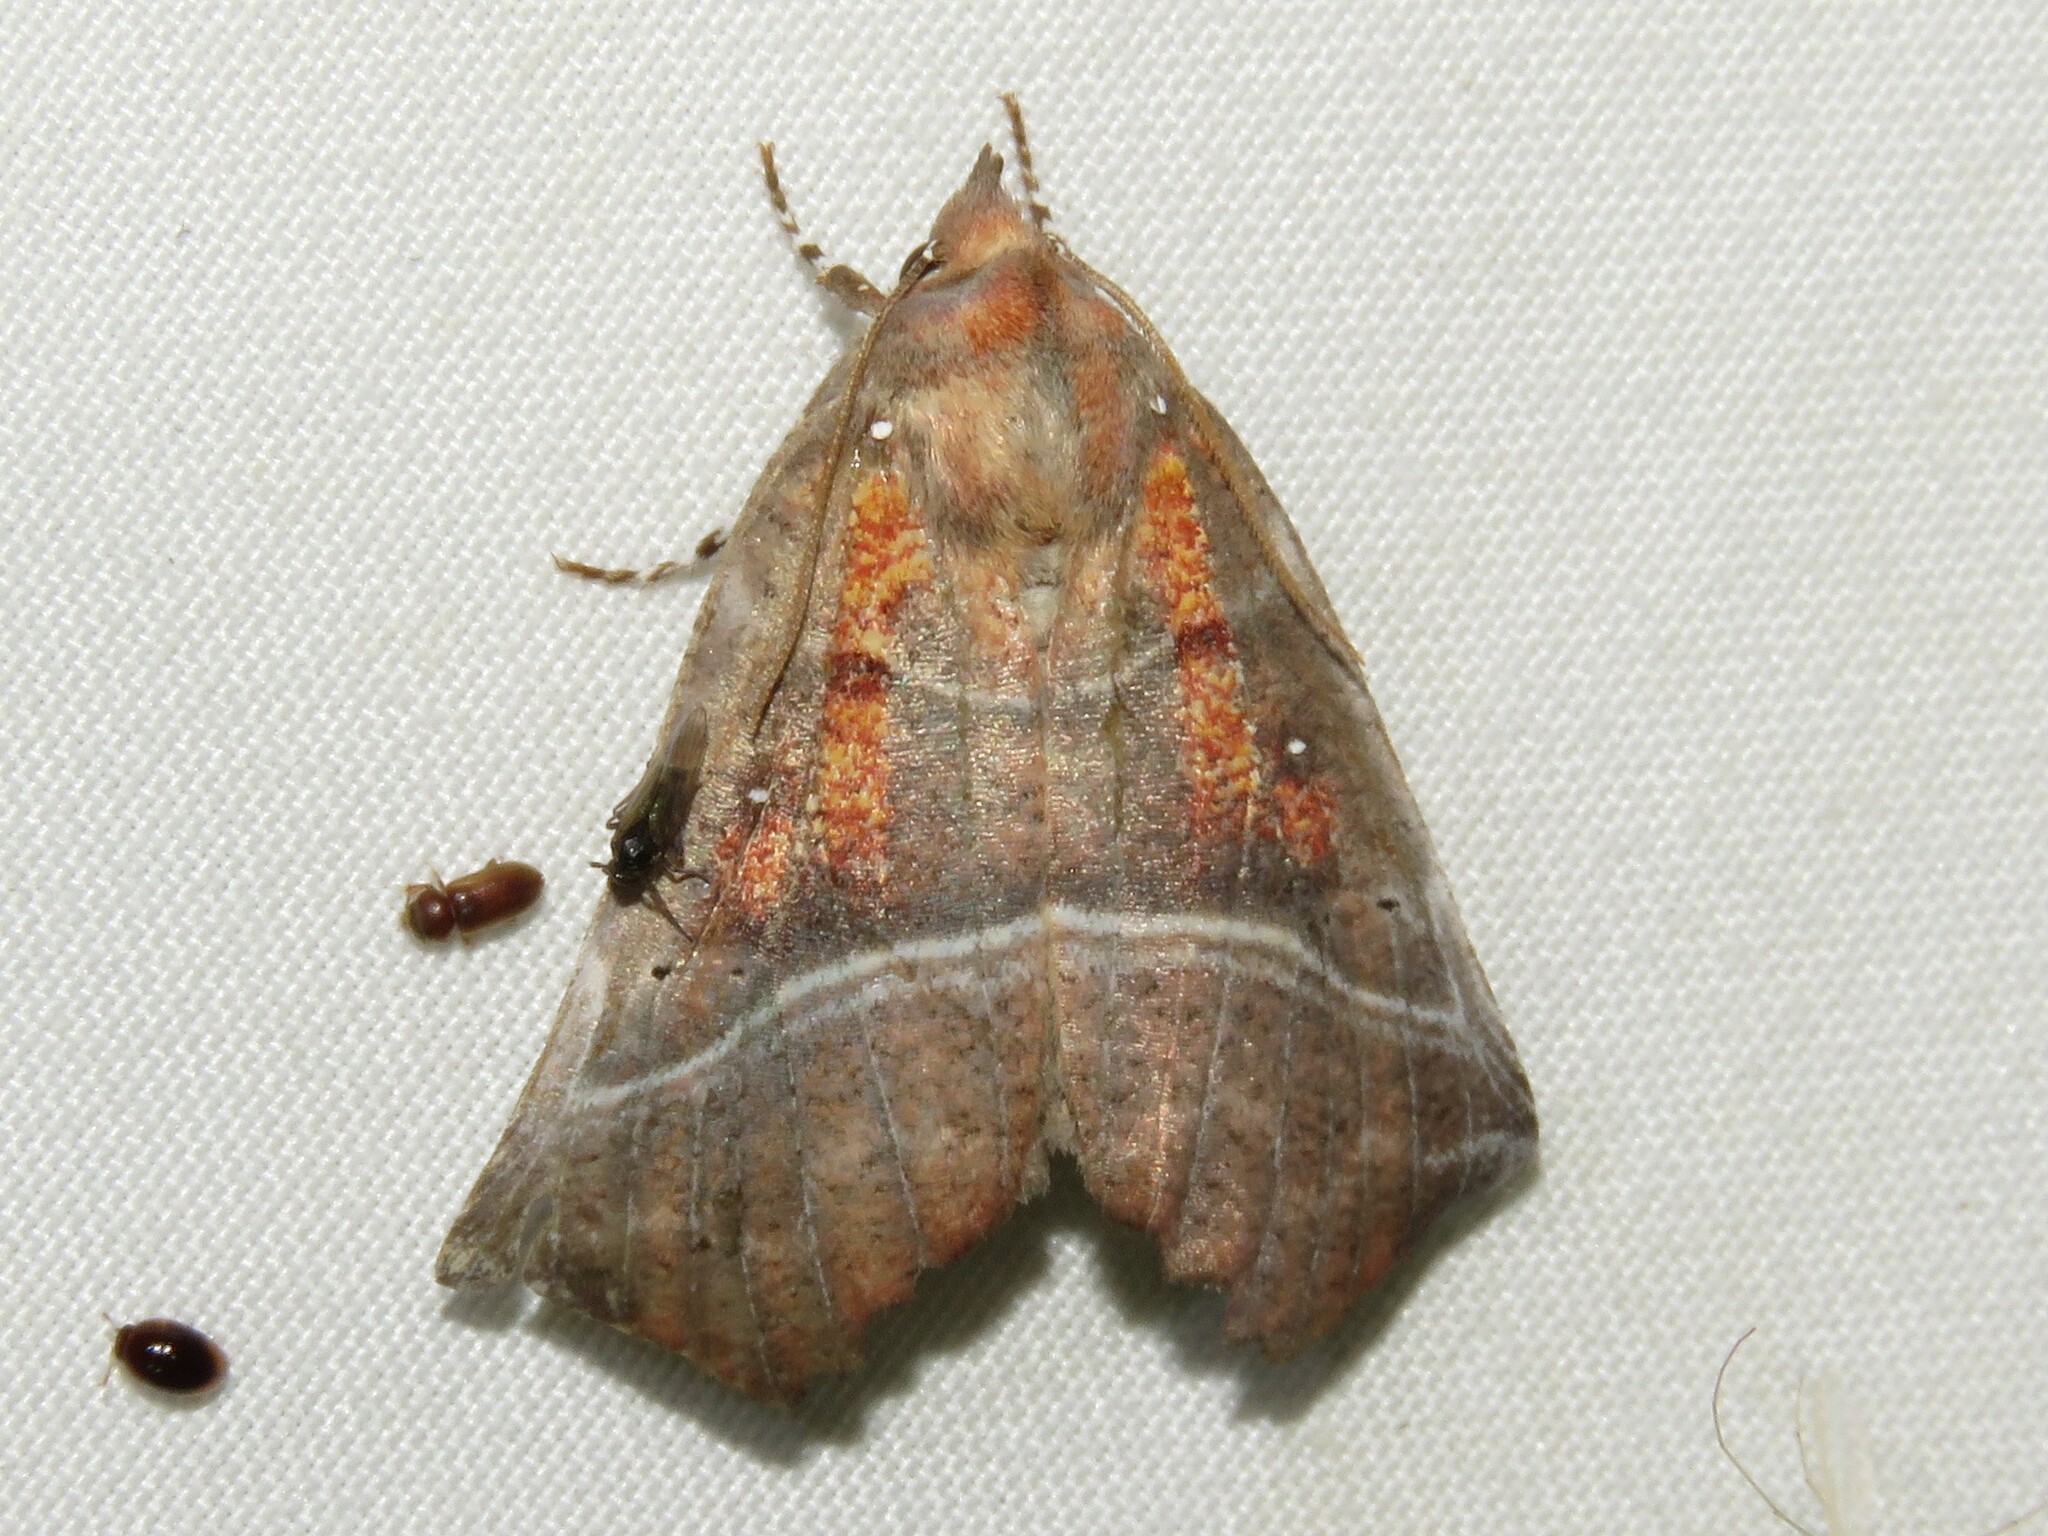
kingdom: Animalia
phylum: Arthropoda
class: Insecta
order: Lepidoptera
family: Erebidae
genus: Scoliopteryx
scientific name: Scoliopteryx libatrix
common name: Herald
